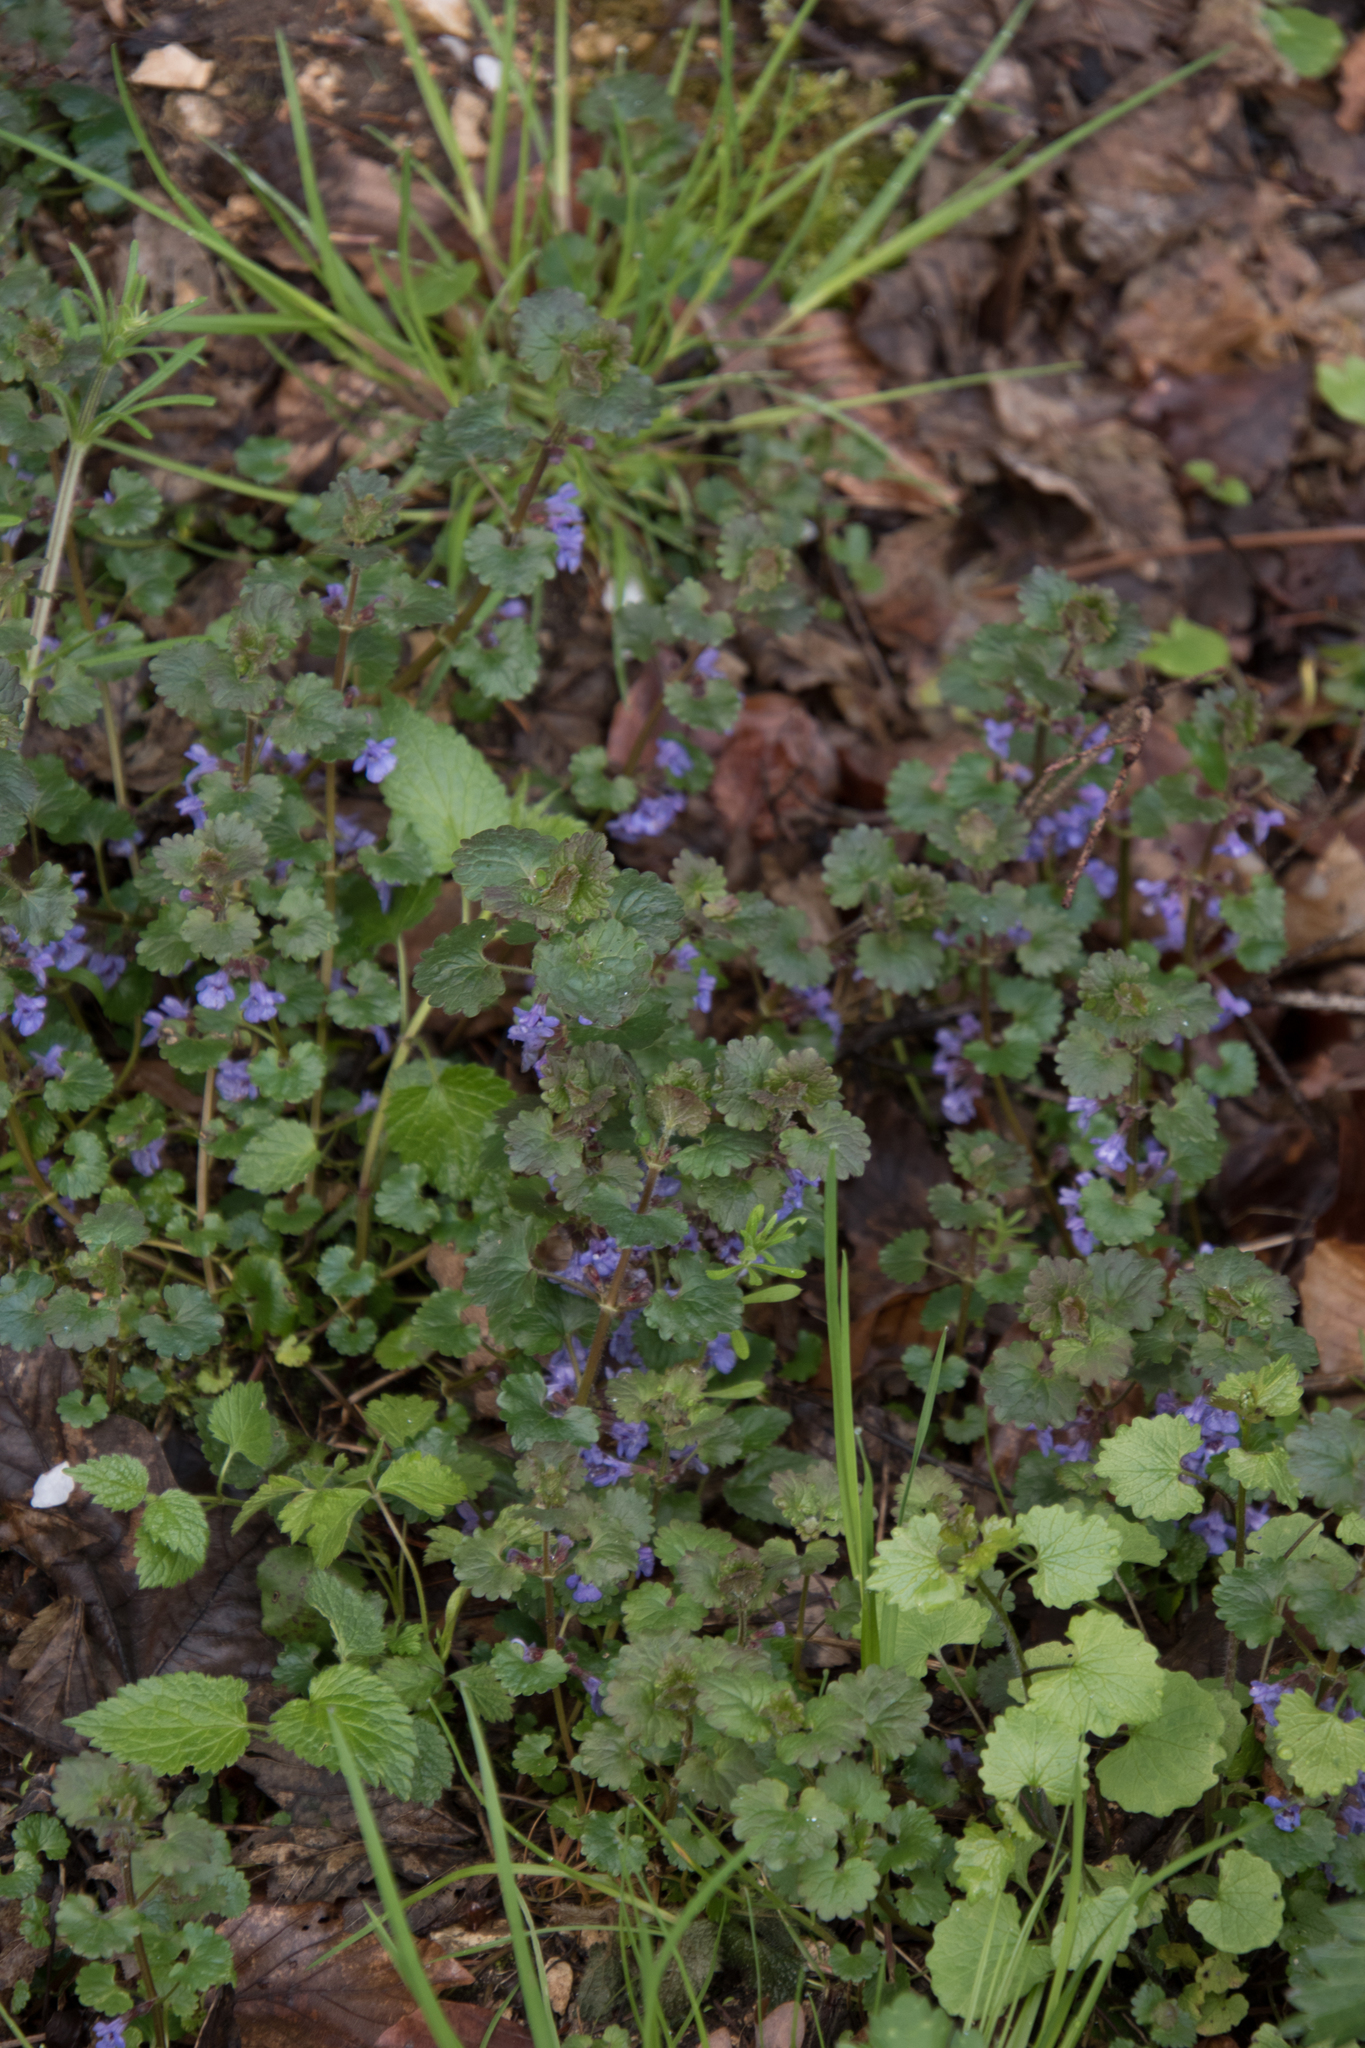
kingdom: Plantae
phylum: Tracheophyta
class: Magnoliopsida
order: Lamiales
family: Lamiaceae
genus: Glechoma
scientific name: Glechoma hederacea
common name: Ground ivy
